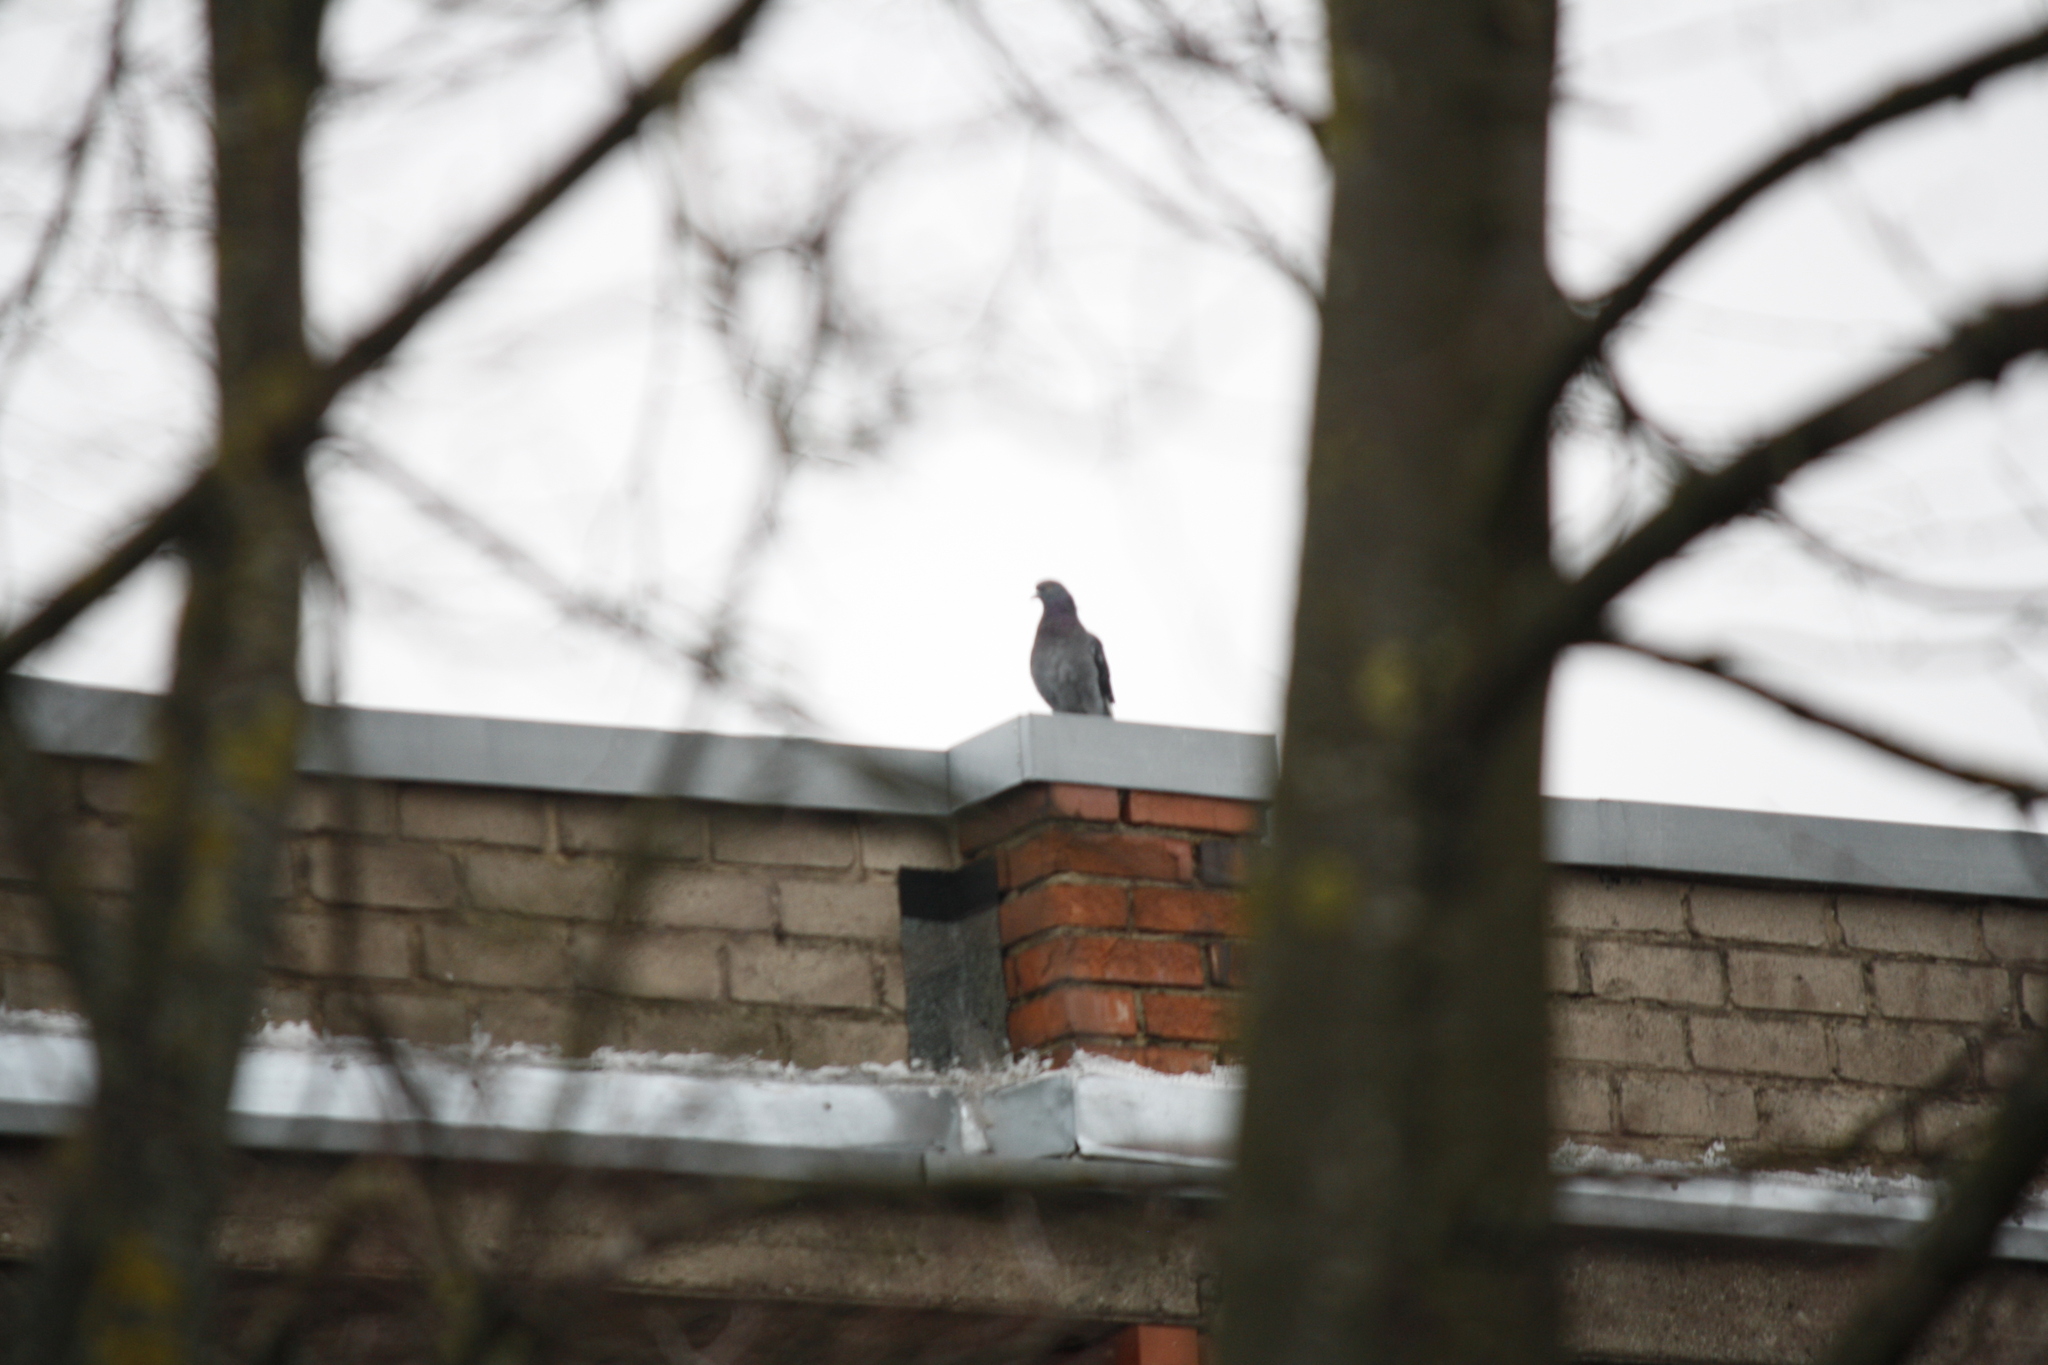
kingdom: Animalia
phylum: Chordata
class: Aves
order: Columbiformes
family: Columbidae
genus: Columba
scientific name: Columba livia
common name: Rock pigeon
